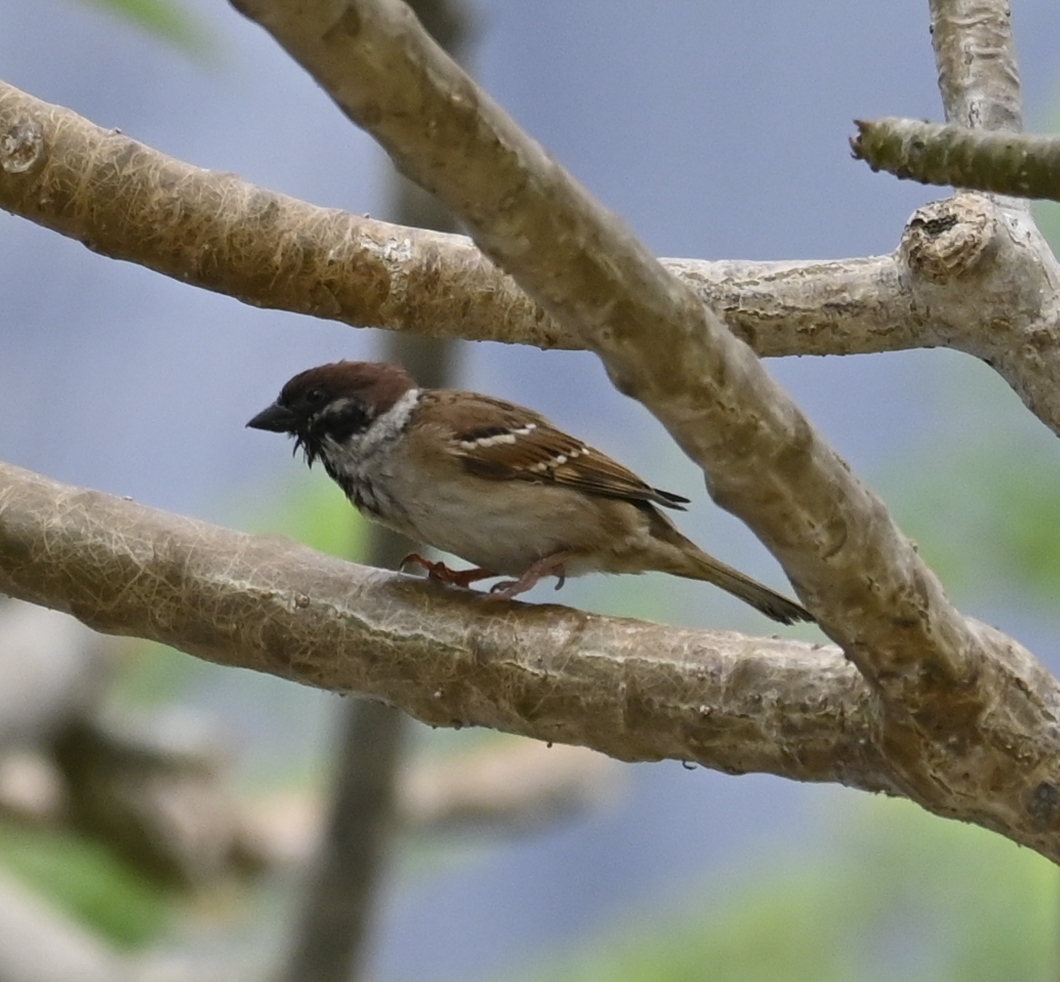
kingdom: Animalia
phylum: Chordata
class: Aves
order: Passeriformes
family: Passeridae
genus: Passer
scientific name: Passer montanus
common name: Eurasian tree sparrow
